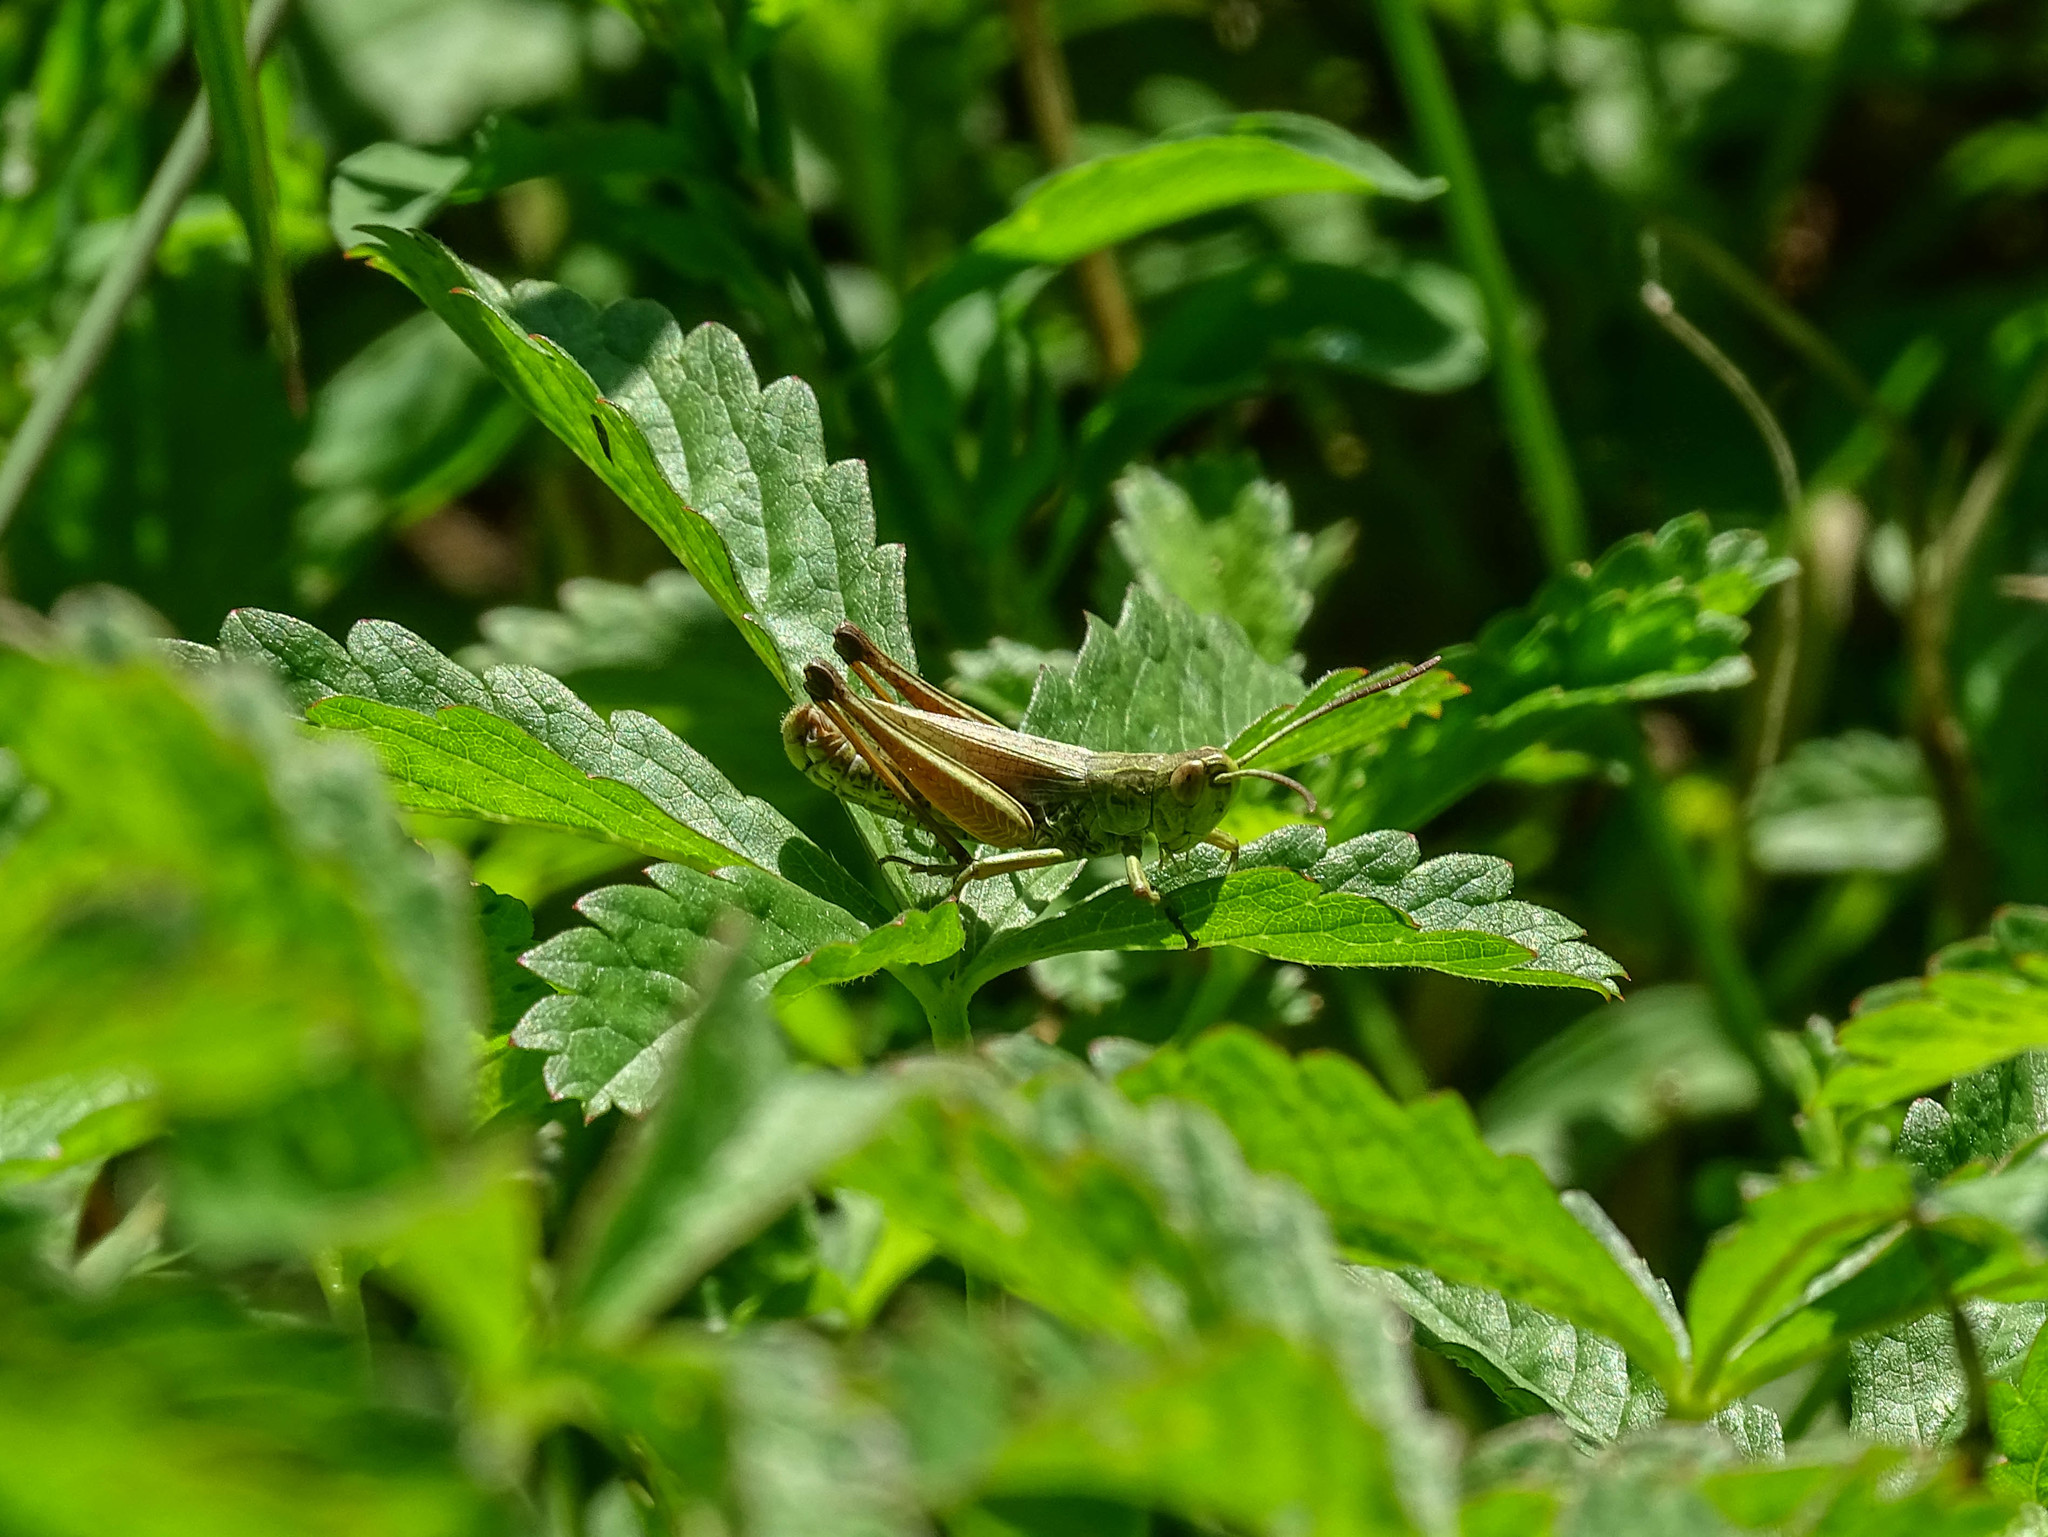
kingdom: Animalia
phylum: Arthropoda
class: Insecta
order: Orthoptera
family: Acrididae
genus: Pseudochorthippus
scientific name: Pseudochorthippus parallelus
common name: Meadow grasshopper
